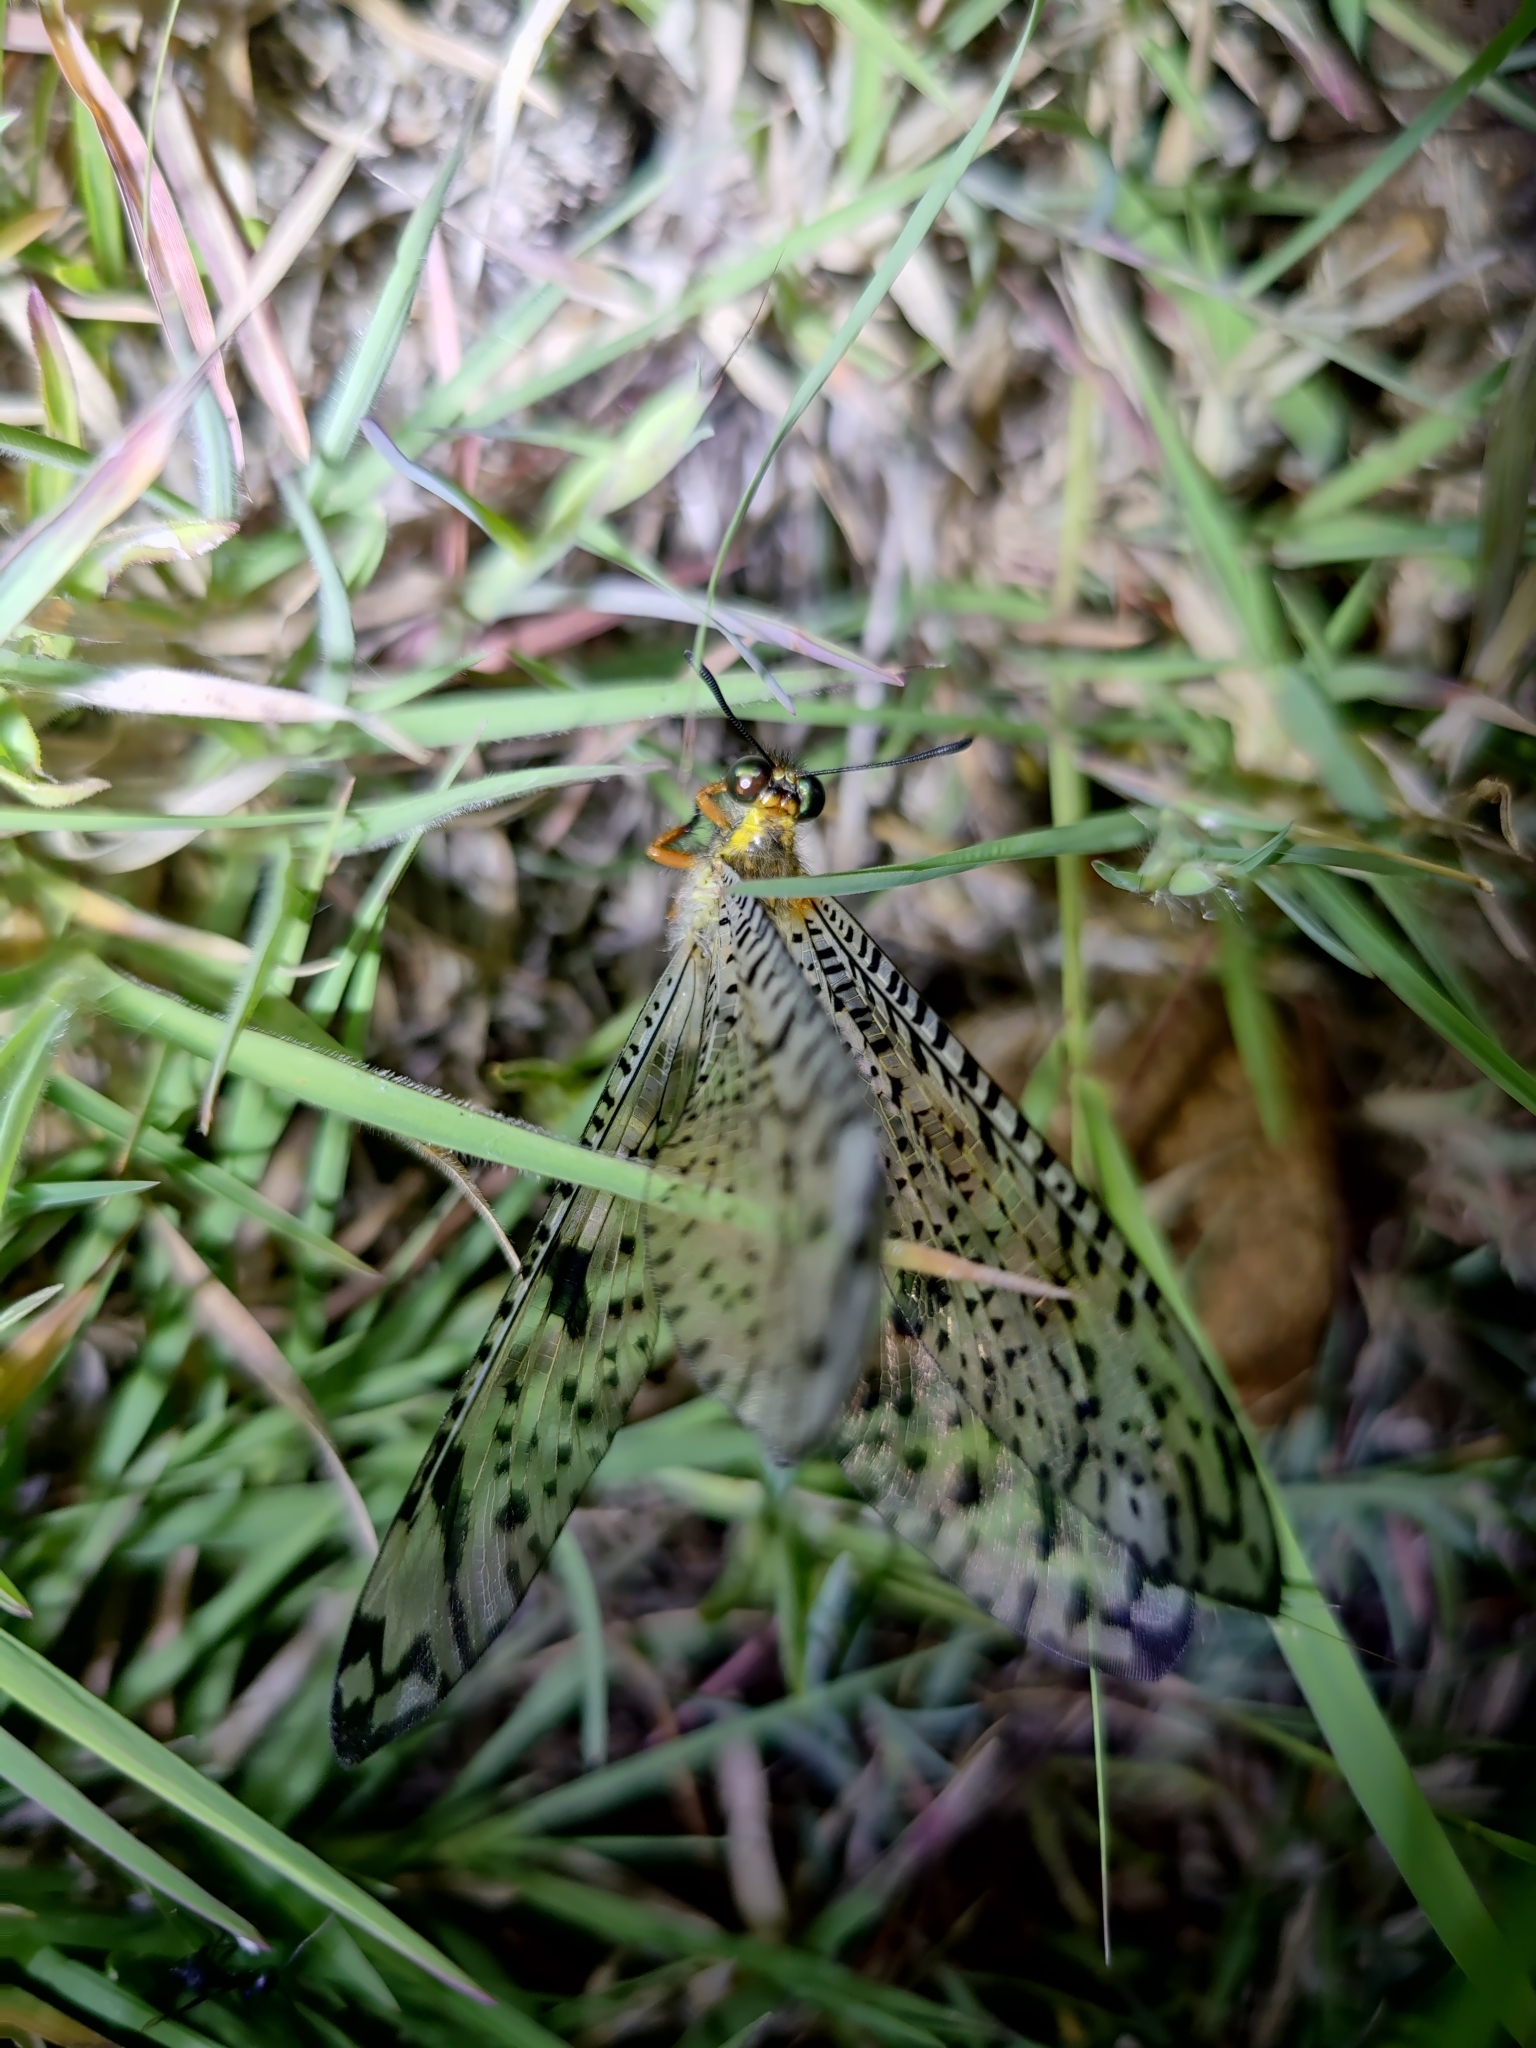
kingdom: Animalia
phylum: Arthropoda
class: Insecta
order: Neuroptera
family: Myrmeleontidae
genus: Indopalpares
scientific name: Indopalpares pardus
